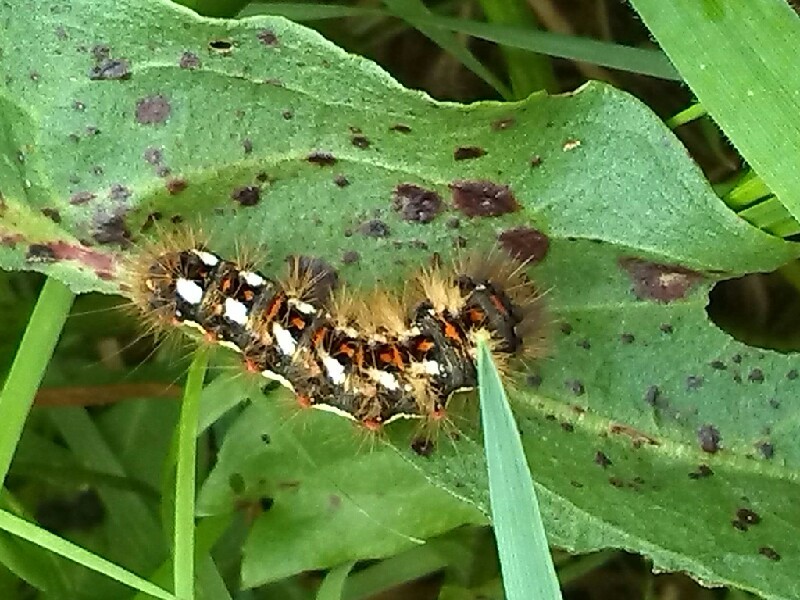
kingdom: Animalia
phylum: Arthropoda
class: Insecta
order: Lepidoptera
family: Noctuidae
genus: Acronicta
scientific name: Acronicta rumicis
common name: Knot grass
